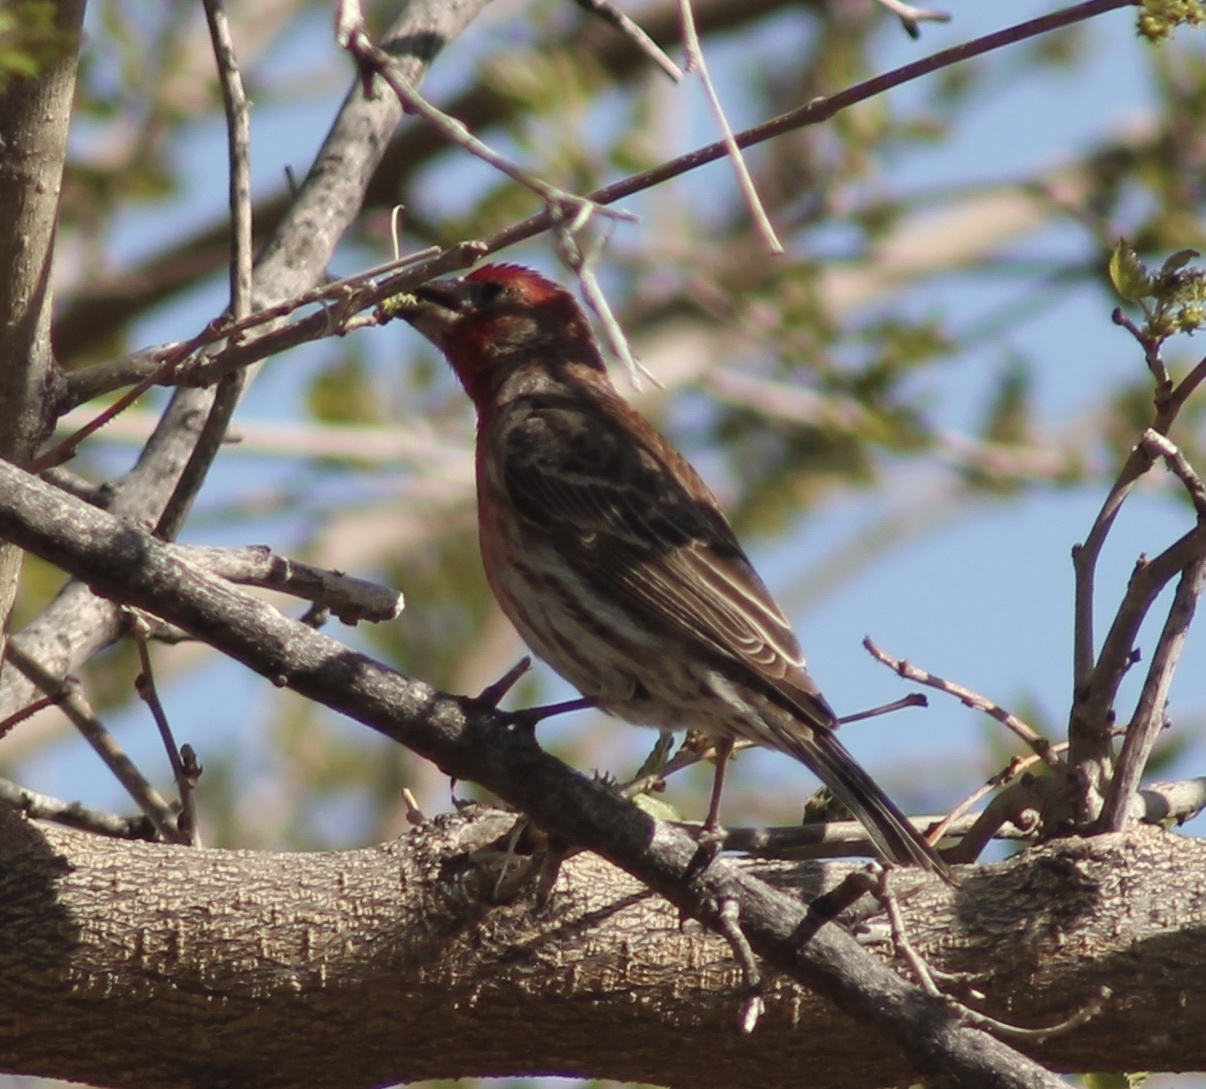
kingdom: Animalia
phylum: Chordata
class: Aves
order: Passeriformes
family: Fringillidae
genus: Haemorhous
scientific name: Haemorhous mexicanus
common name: House finch
